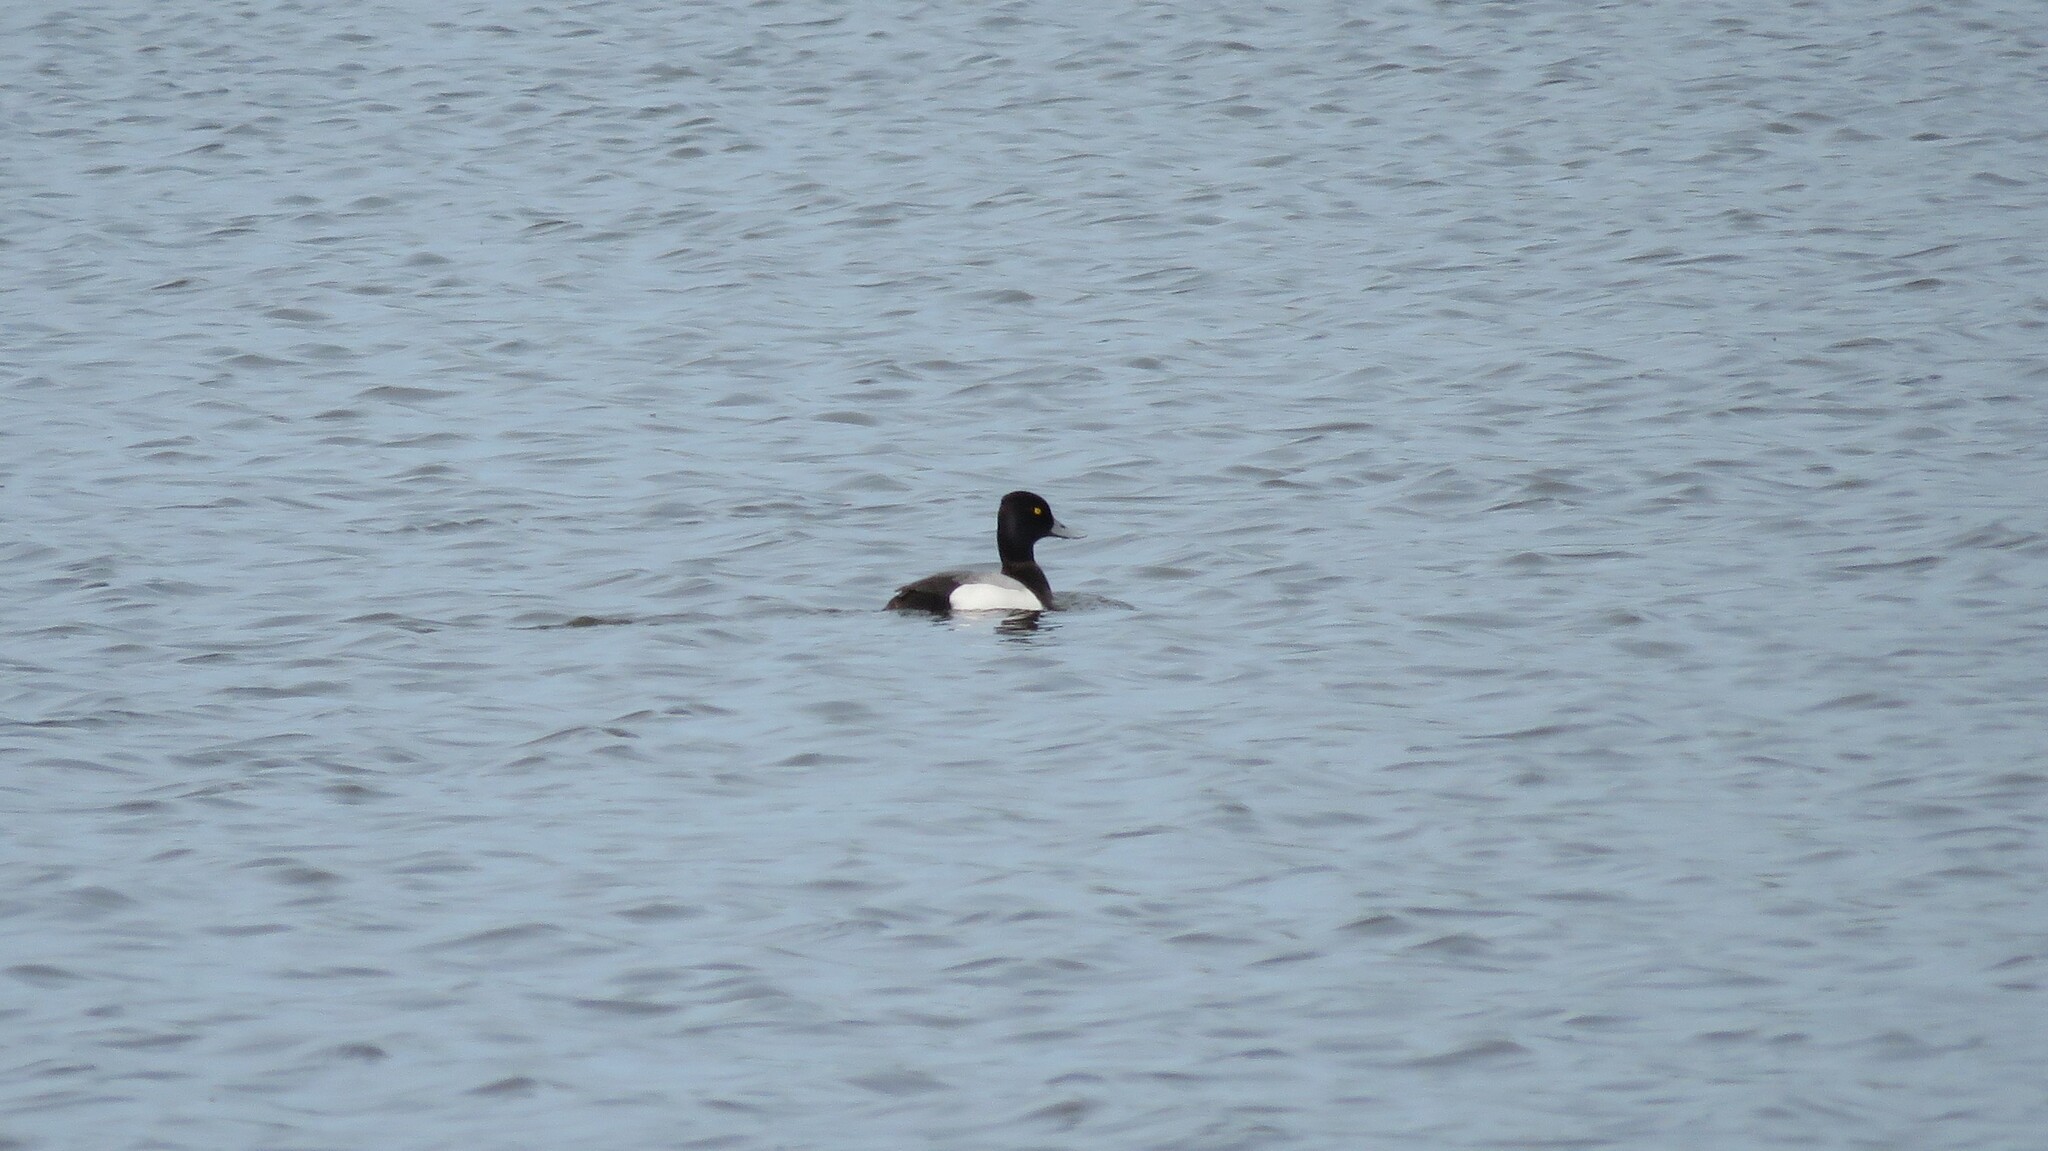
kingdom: Animalia
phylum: Chordata
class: Aves
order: Anseriformes
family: Anatidae
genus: Aythya
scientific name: Aythya affinis
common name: Lesser scaup
